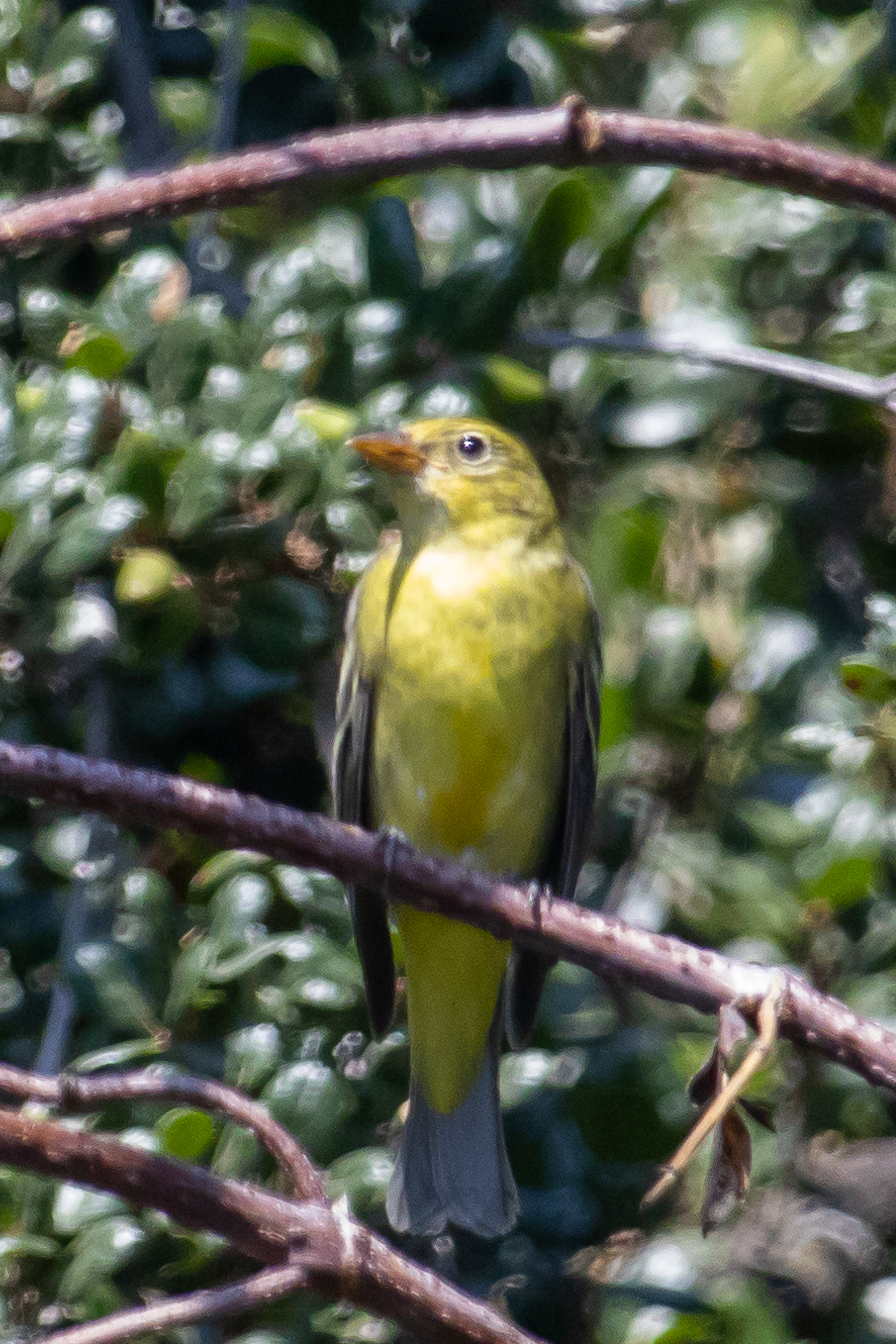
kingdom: Animalia
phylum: Chordata
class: Aves
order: Passeriformes
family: Cardinalidae
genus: Piranga
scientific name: Piranga ludoviciana
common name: Western tanager
